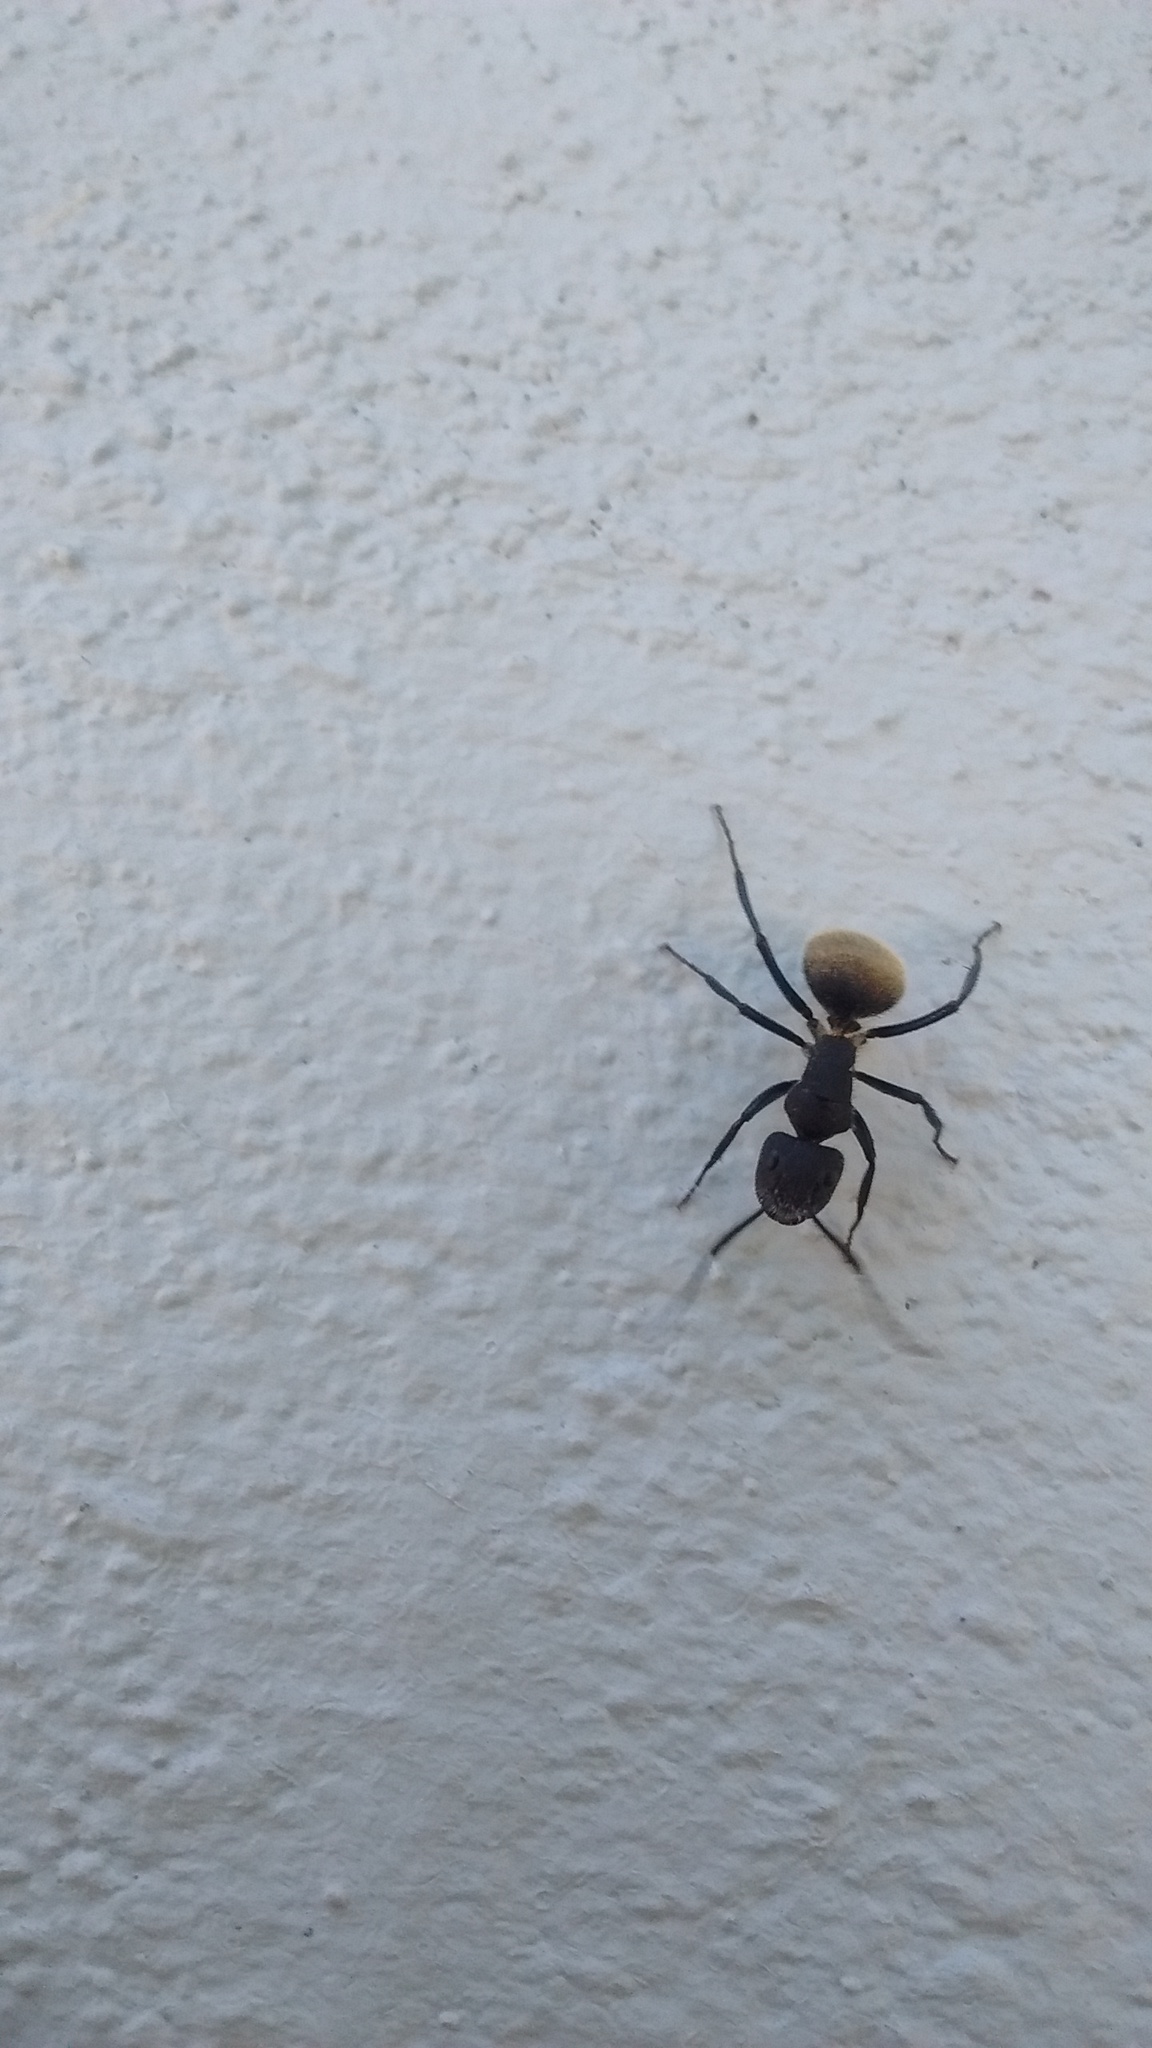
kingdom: Animalia
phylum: Arthropoda
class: Insecta
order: Hymenoptera
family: Formicidae
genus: Camponotus
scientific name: Camponotus mus
